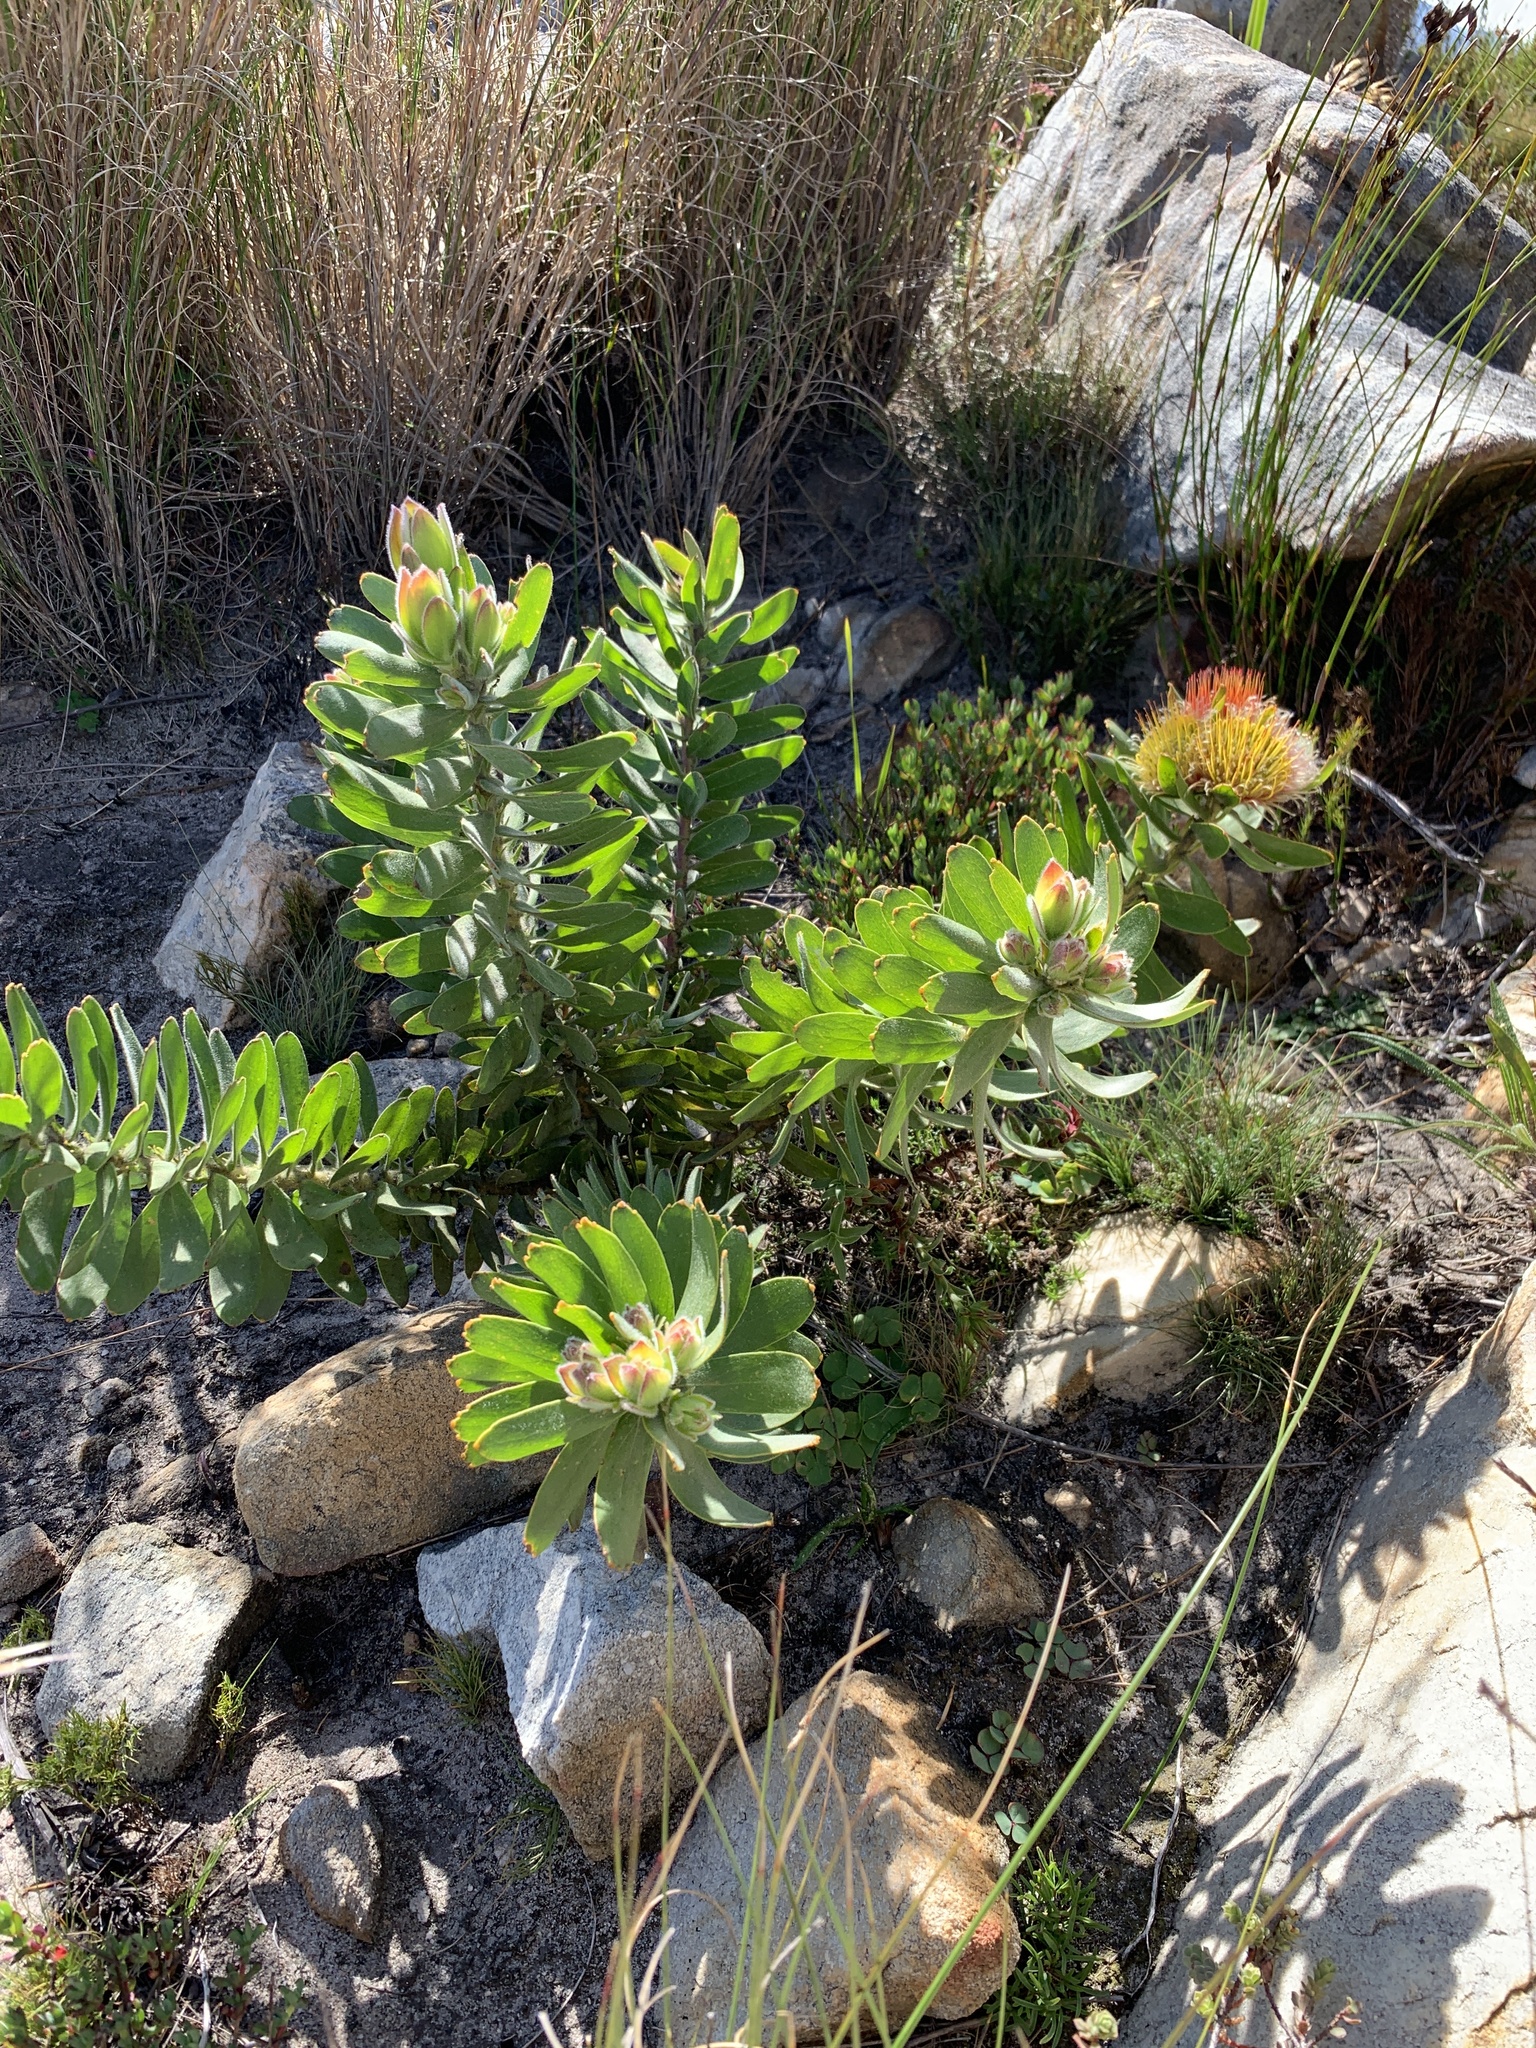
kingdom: Plantae
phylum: Tracheophyta
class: Magnoliopsida
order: Proteales
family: Proteaceae
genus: Leucospermum
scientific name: Leucospermum oleifolium
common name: Matches
